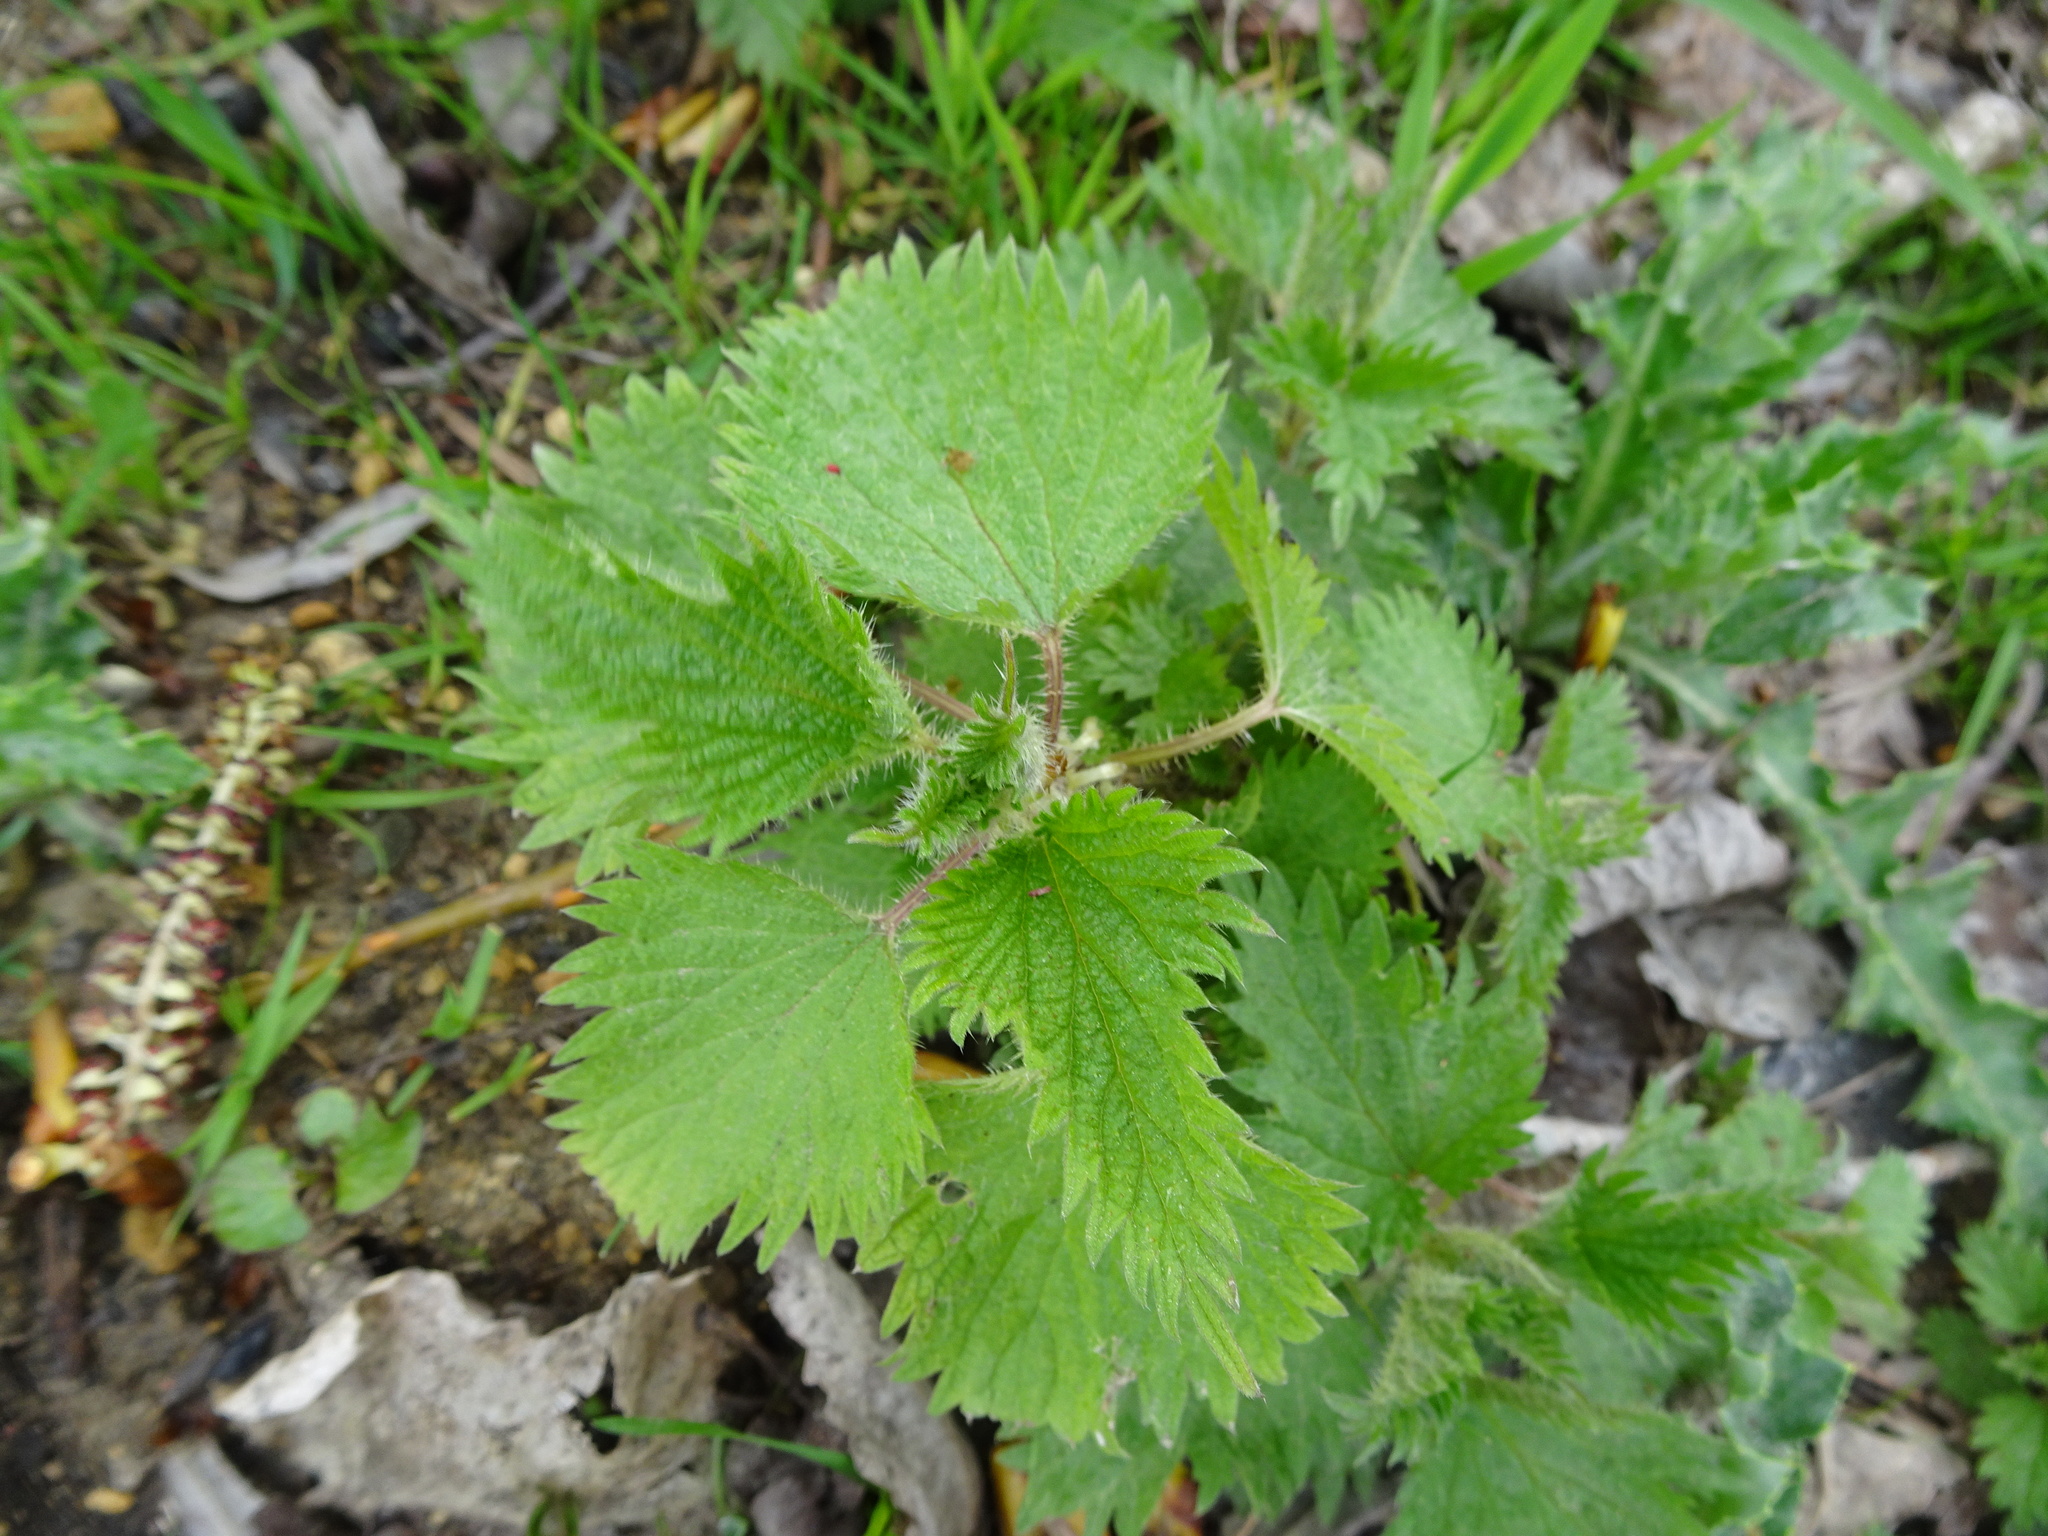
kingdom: Plantae
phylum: Tracheophyta
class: Magnoliopsida
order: Rosales
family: Urticaceae
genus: Urtica
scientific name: Urtica dioica
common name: Common nettle
